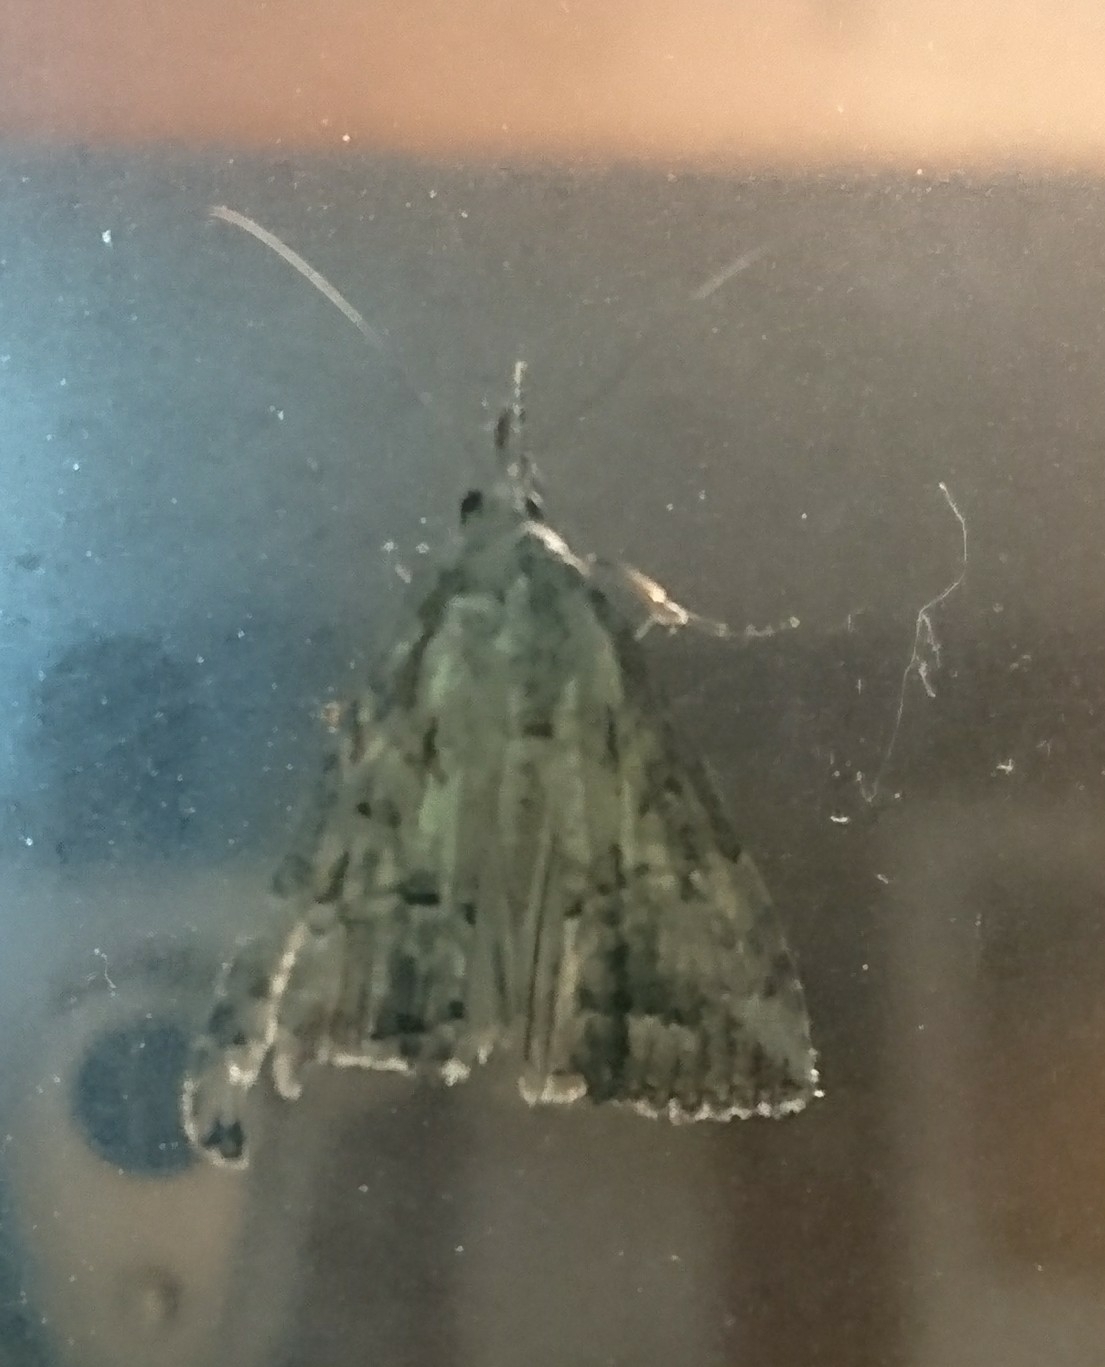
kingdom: Animalia
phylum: Arthropoda
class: Insecta
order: Lepidoptera
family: Erebidae
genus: Hypena
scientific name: Hypena scabra
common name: Green cloverworm
